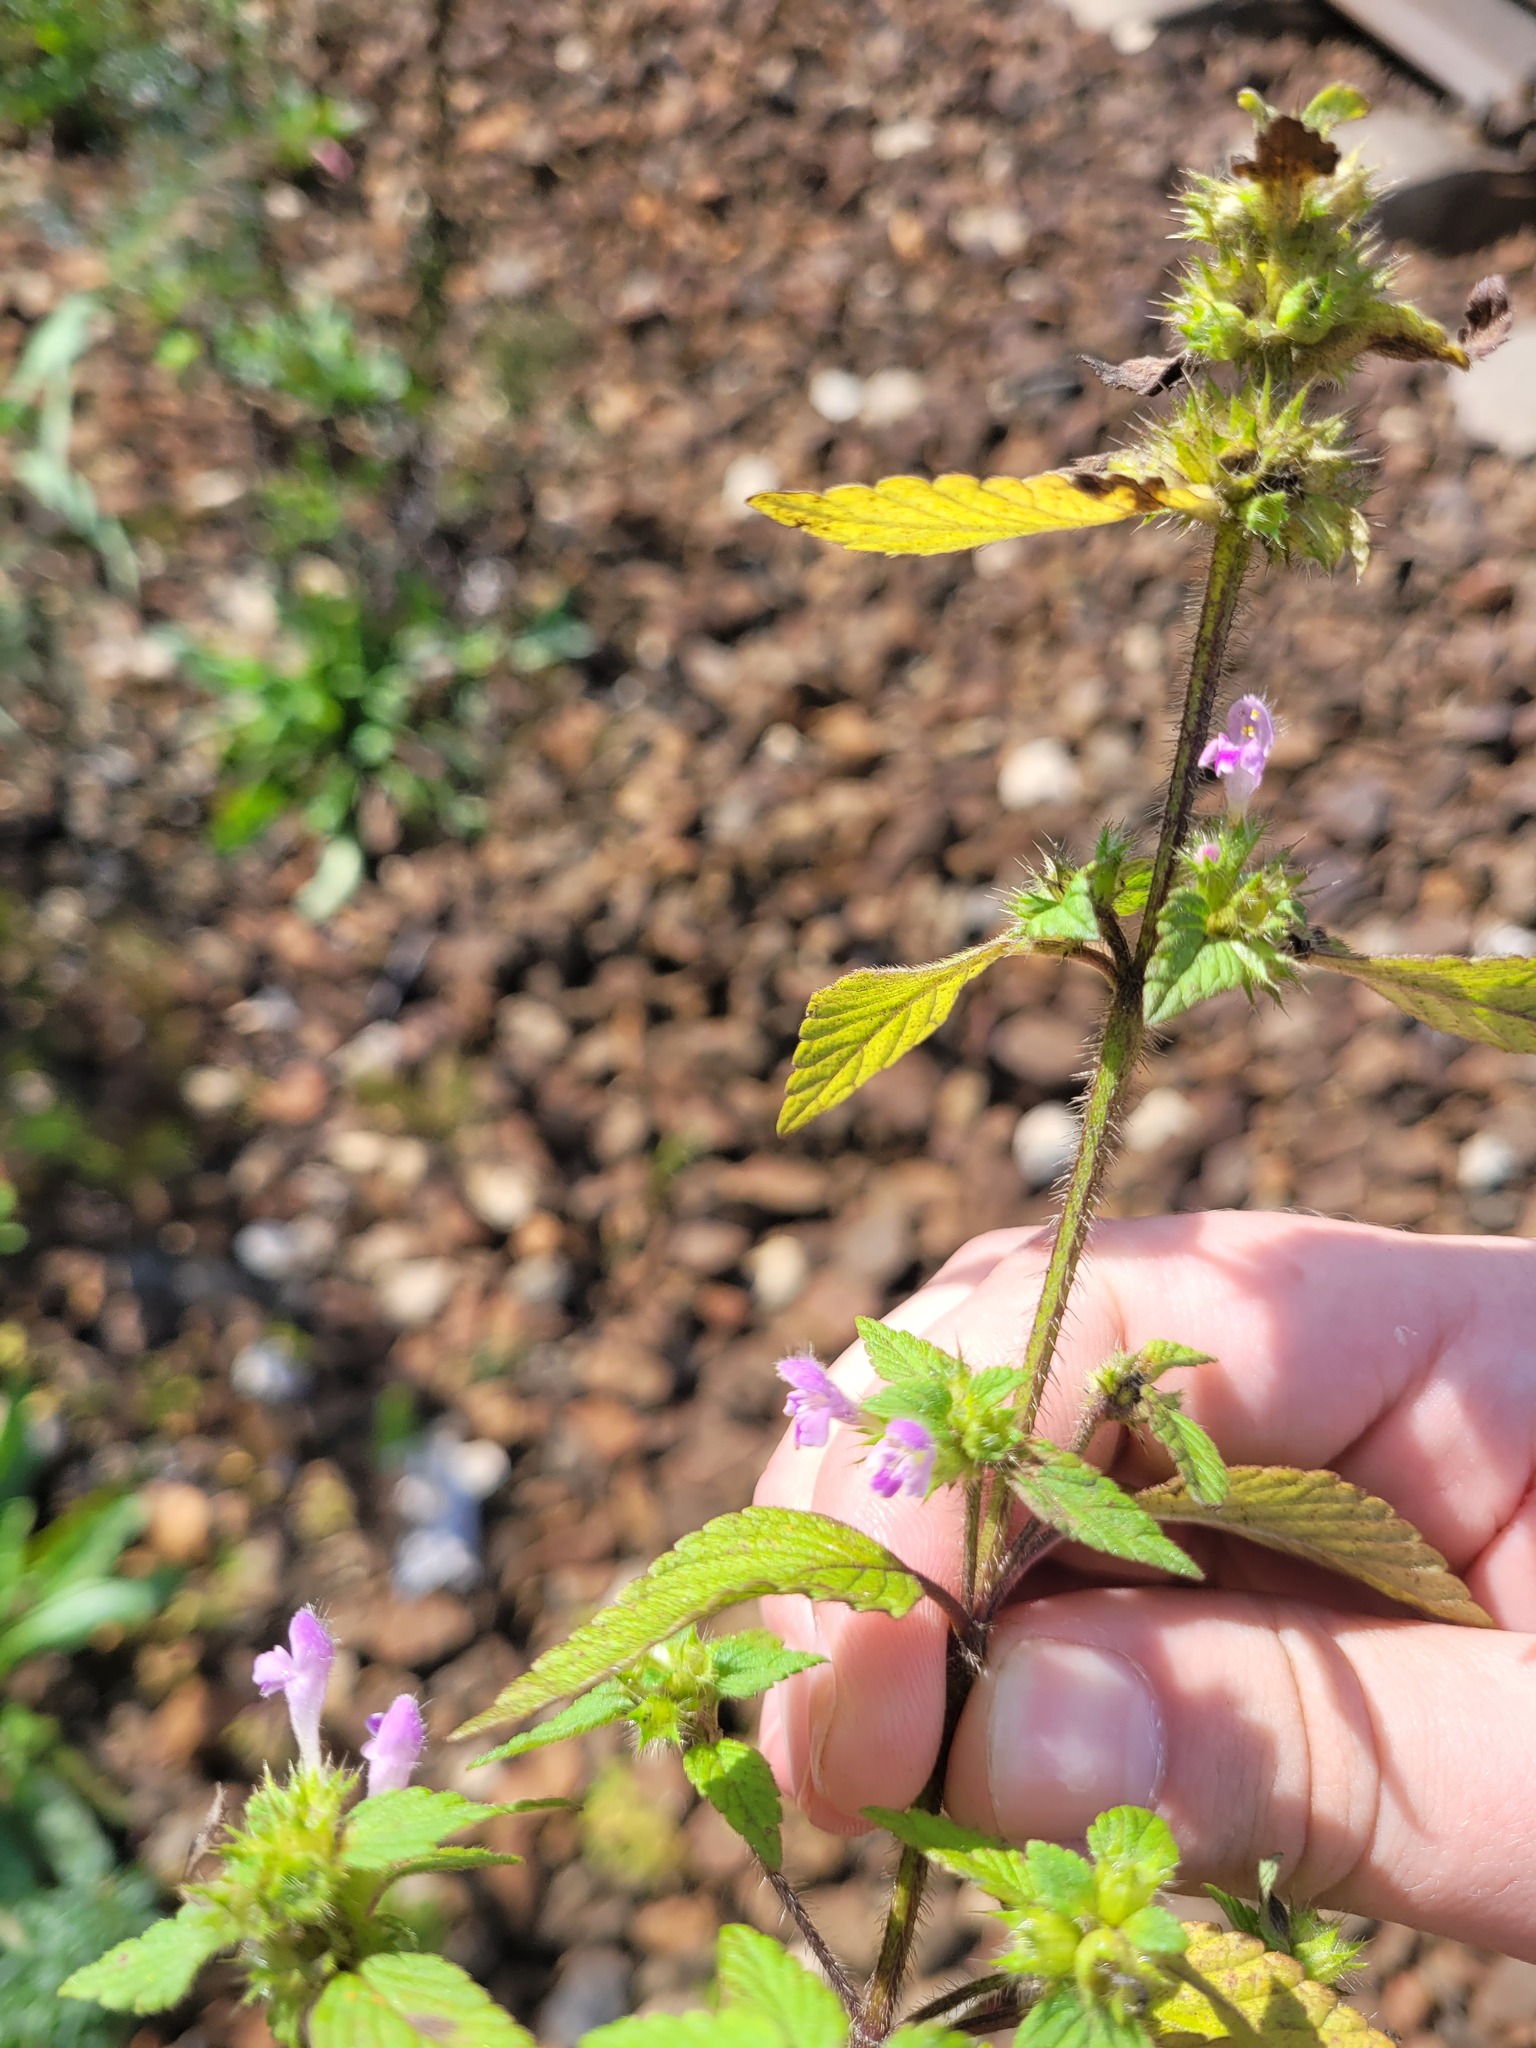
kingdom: Plantae
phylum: Tracheophyta
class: Magnoliopsida
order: Lamiales
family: Lamiaceae
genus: Galeopsis
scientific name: Galeopsis bifida
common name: Bifid hemp-nettle
